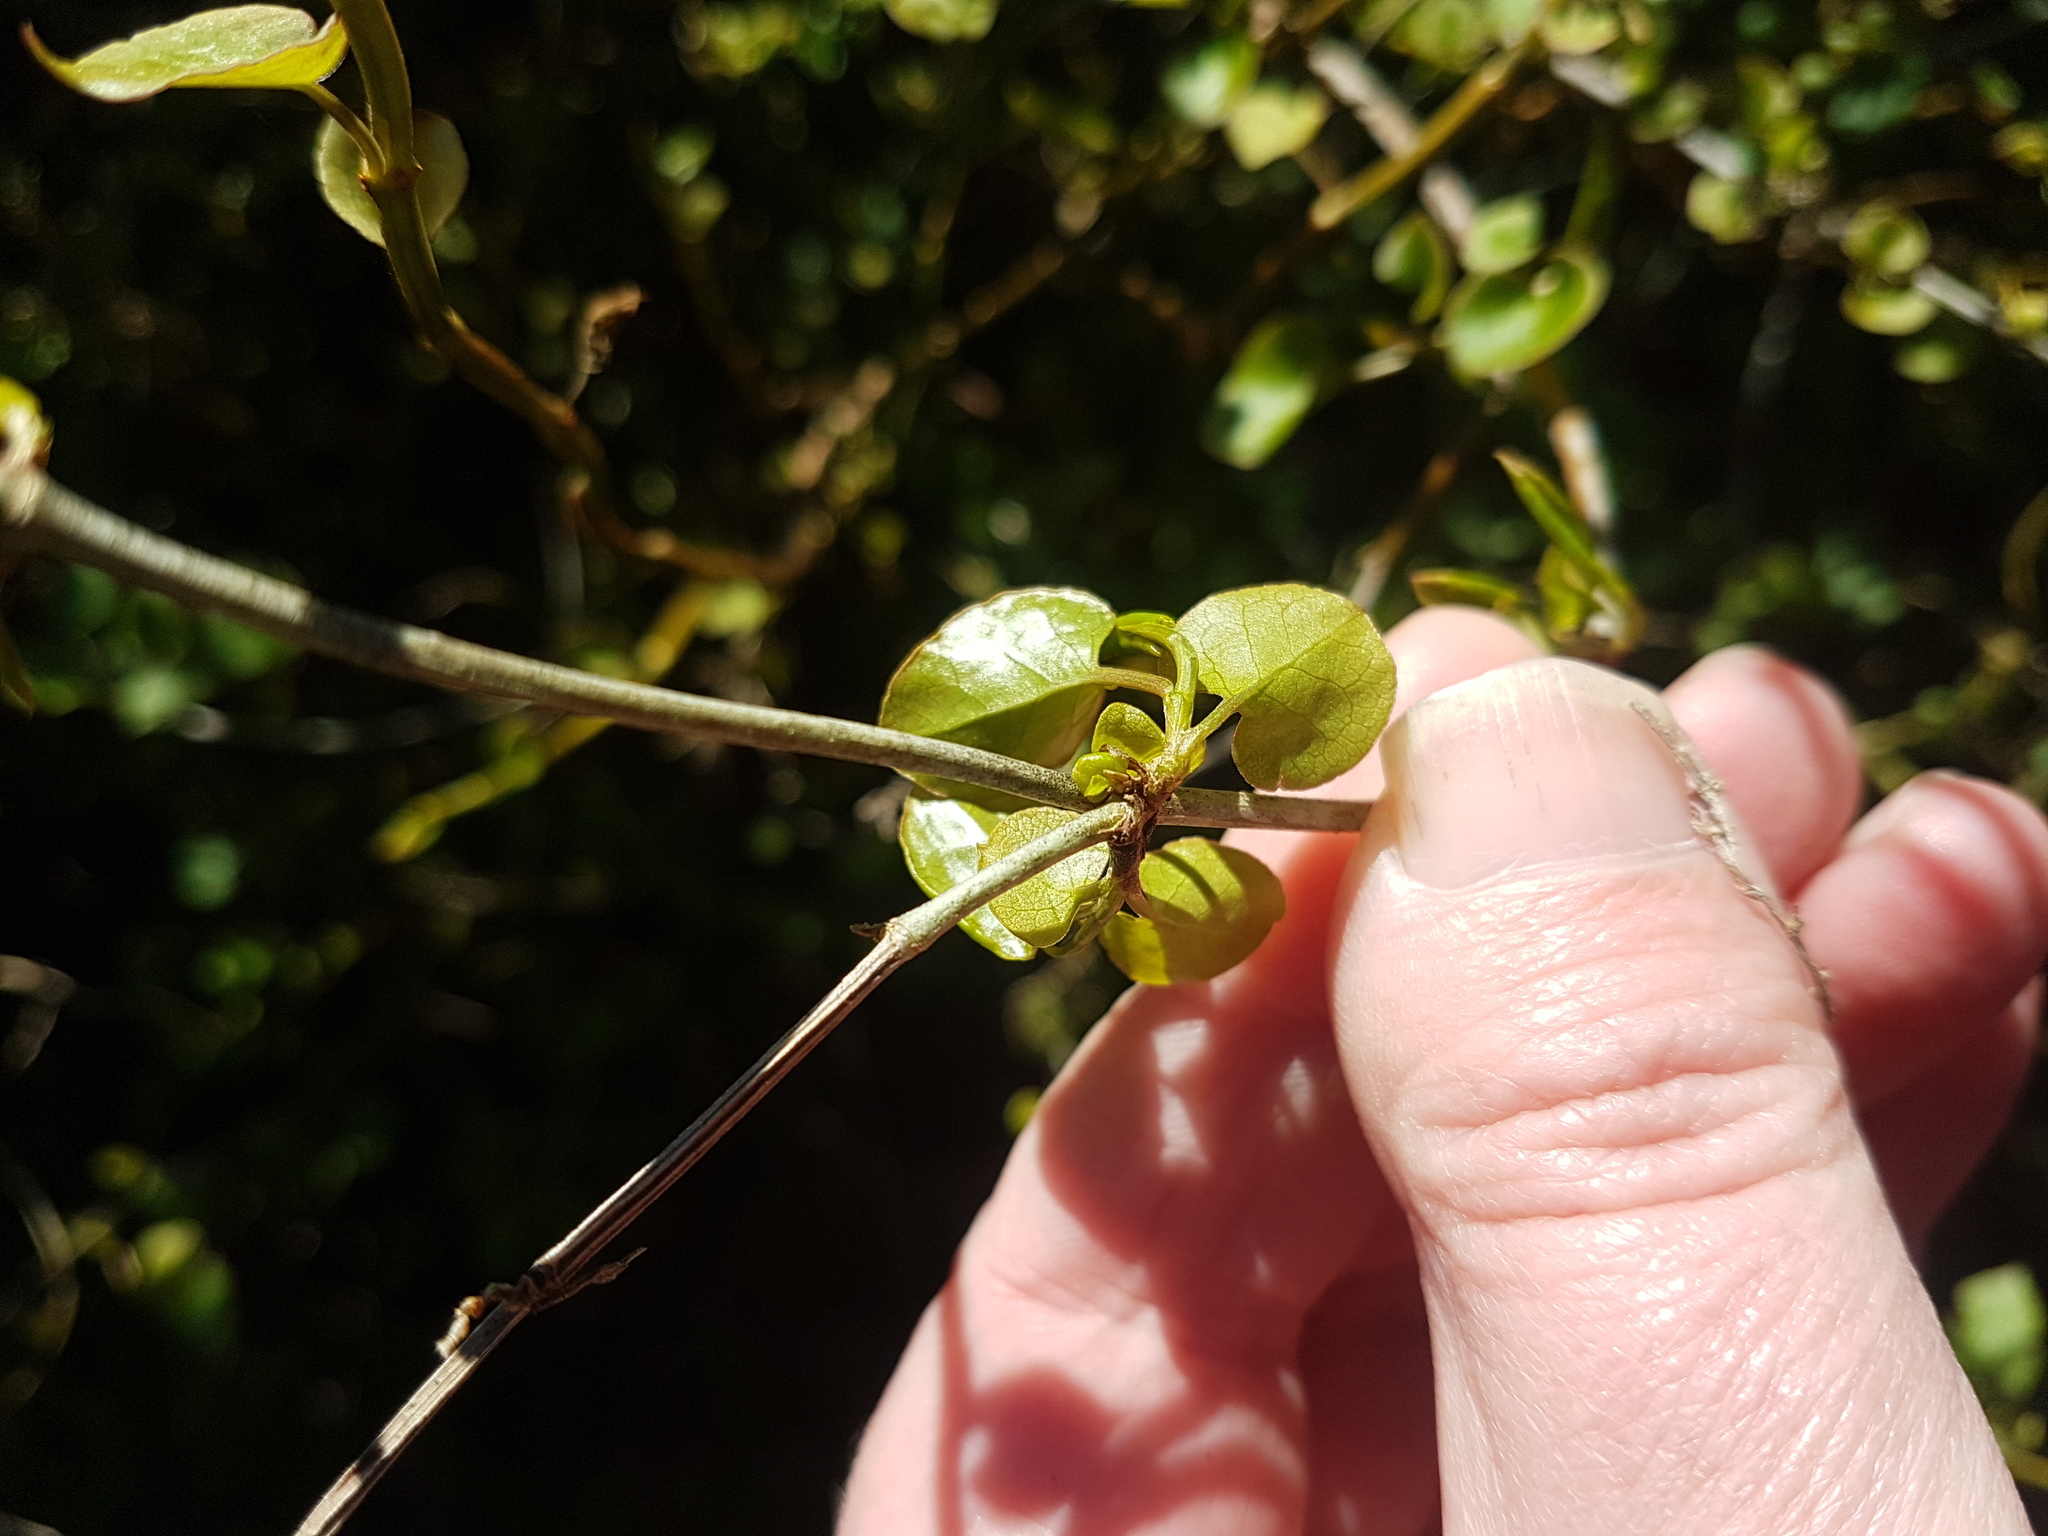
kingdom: Plantae
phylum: Tracheophyta
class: Magnoliopsida
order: Caryophyllales
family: Polygonaceae
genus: Muehlenbeckia
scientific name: Muehlenbeckia australis
